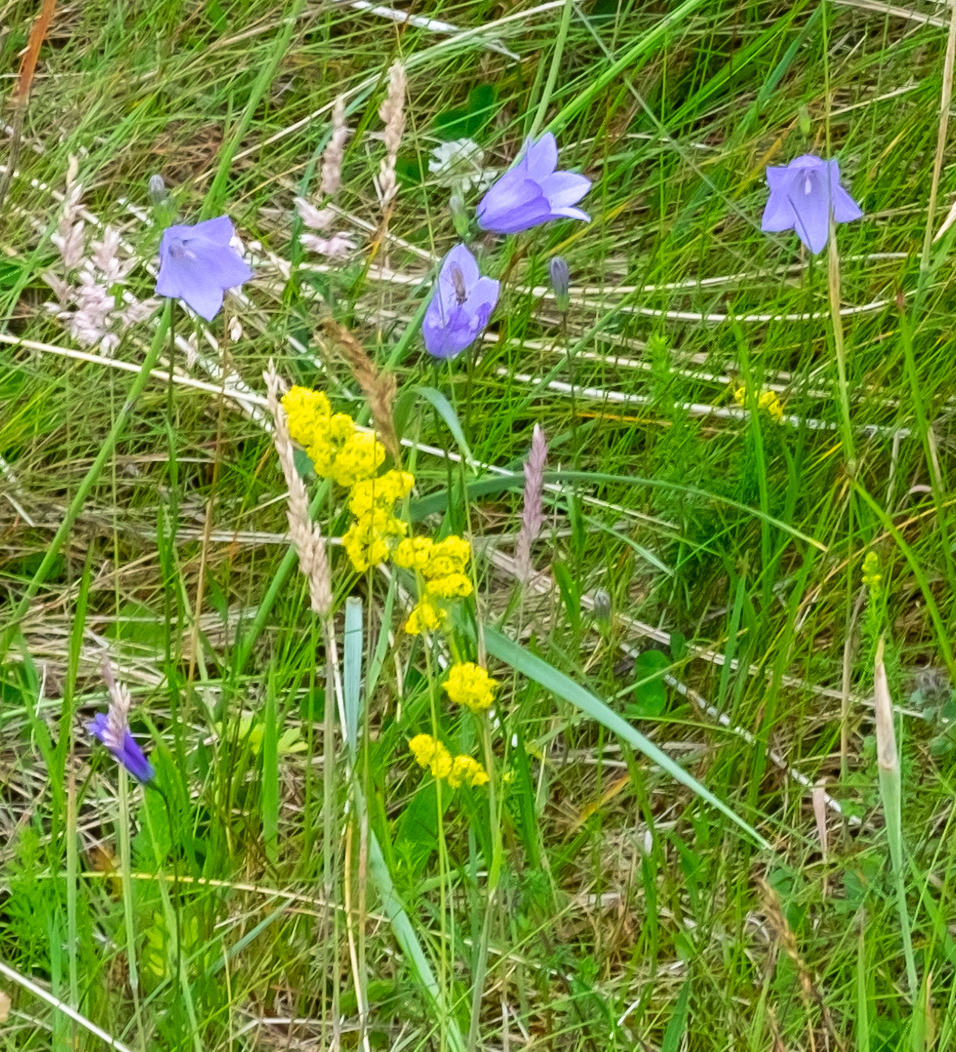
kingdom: Plantae
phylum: Tracheophyta
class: Magnoliopsida
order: Asterales
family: Campanulaceae
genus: Campanula
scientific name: Campanula rotundifolia
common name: Harebell
